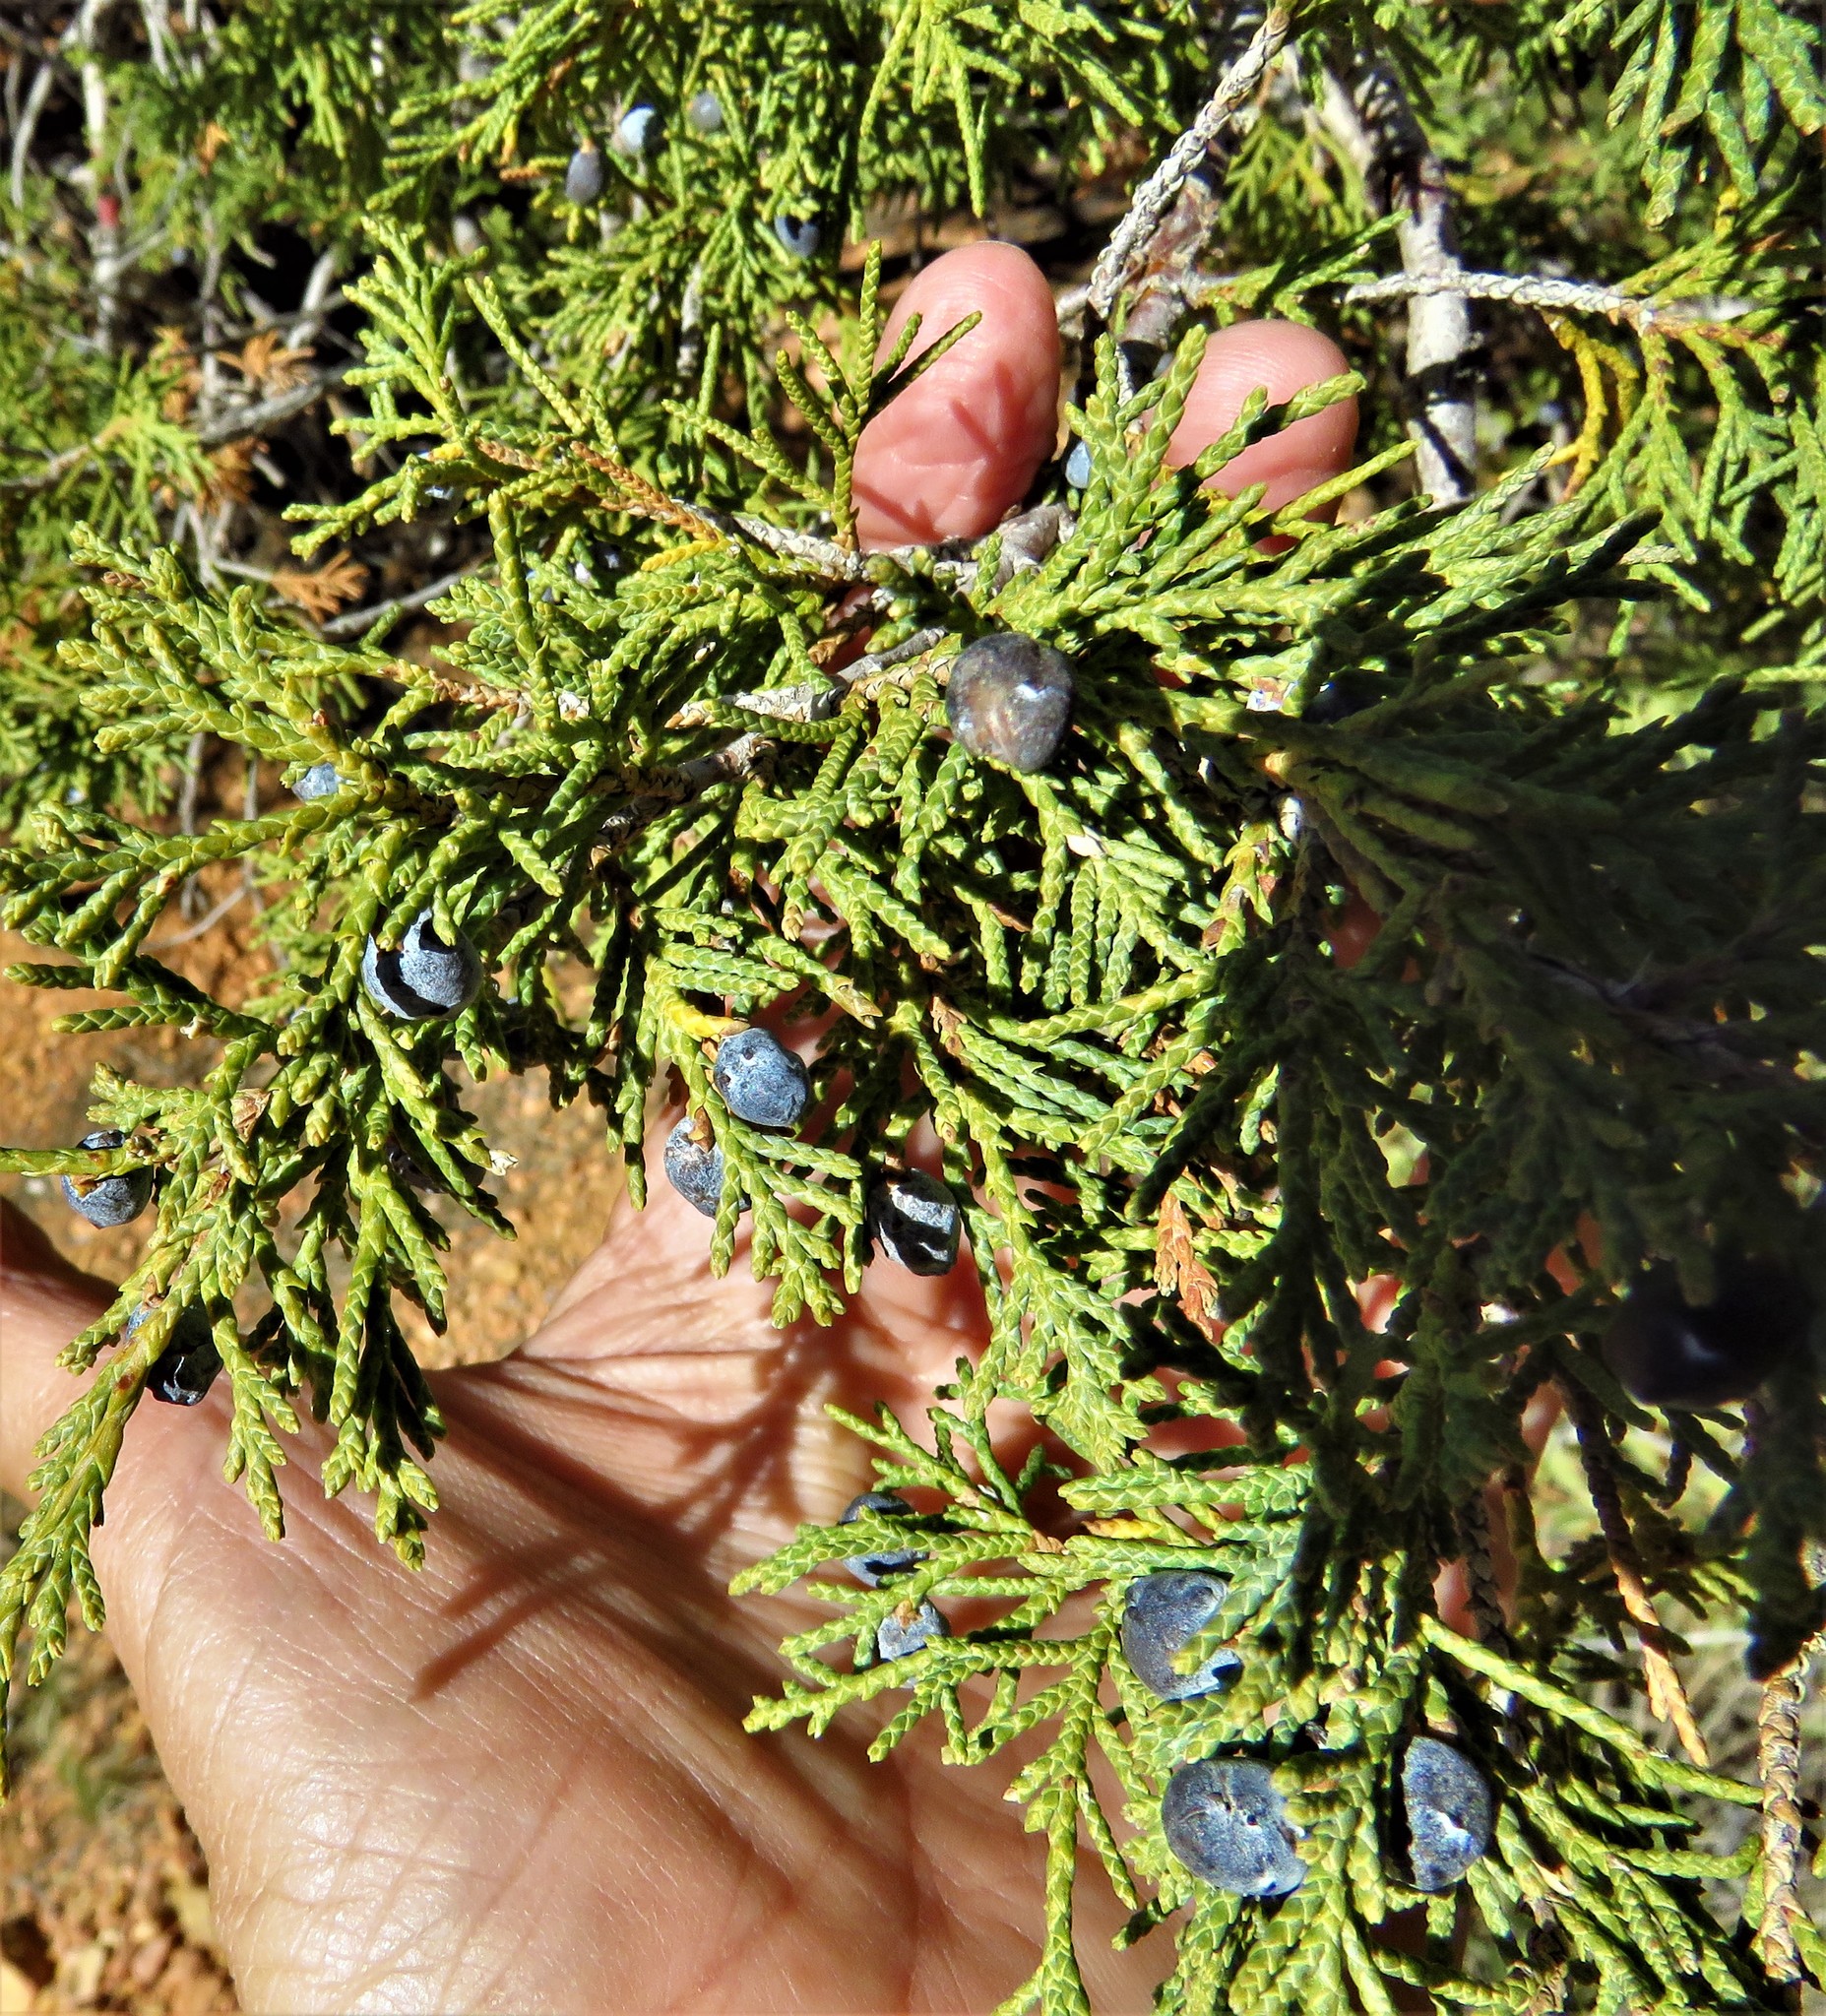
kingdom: Plantae
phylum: Tracheophyta
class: Pinopsida
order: Pinales
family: Cupressaceae
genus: Juniperus
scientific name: Juniperus osteosperma
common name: Utah juniper
